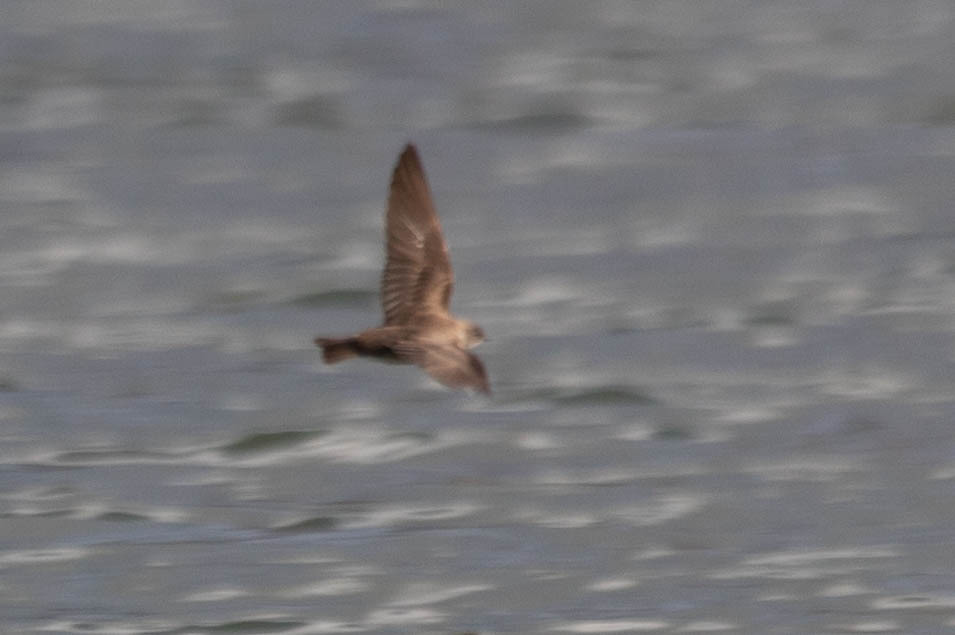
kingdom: Animalia
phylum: Chordata
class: Aves
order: Passeriformes
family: Hirundinidae
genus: Stelgidopteryx
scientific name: Stelgidopteryx serripennis
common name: Northern rough-winged swallow
